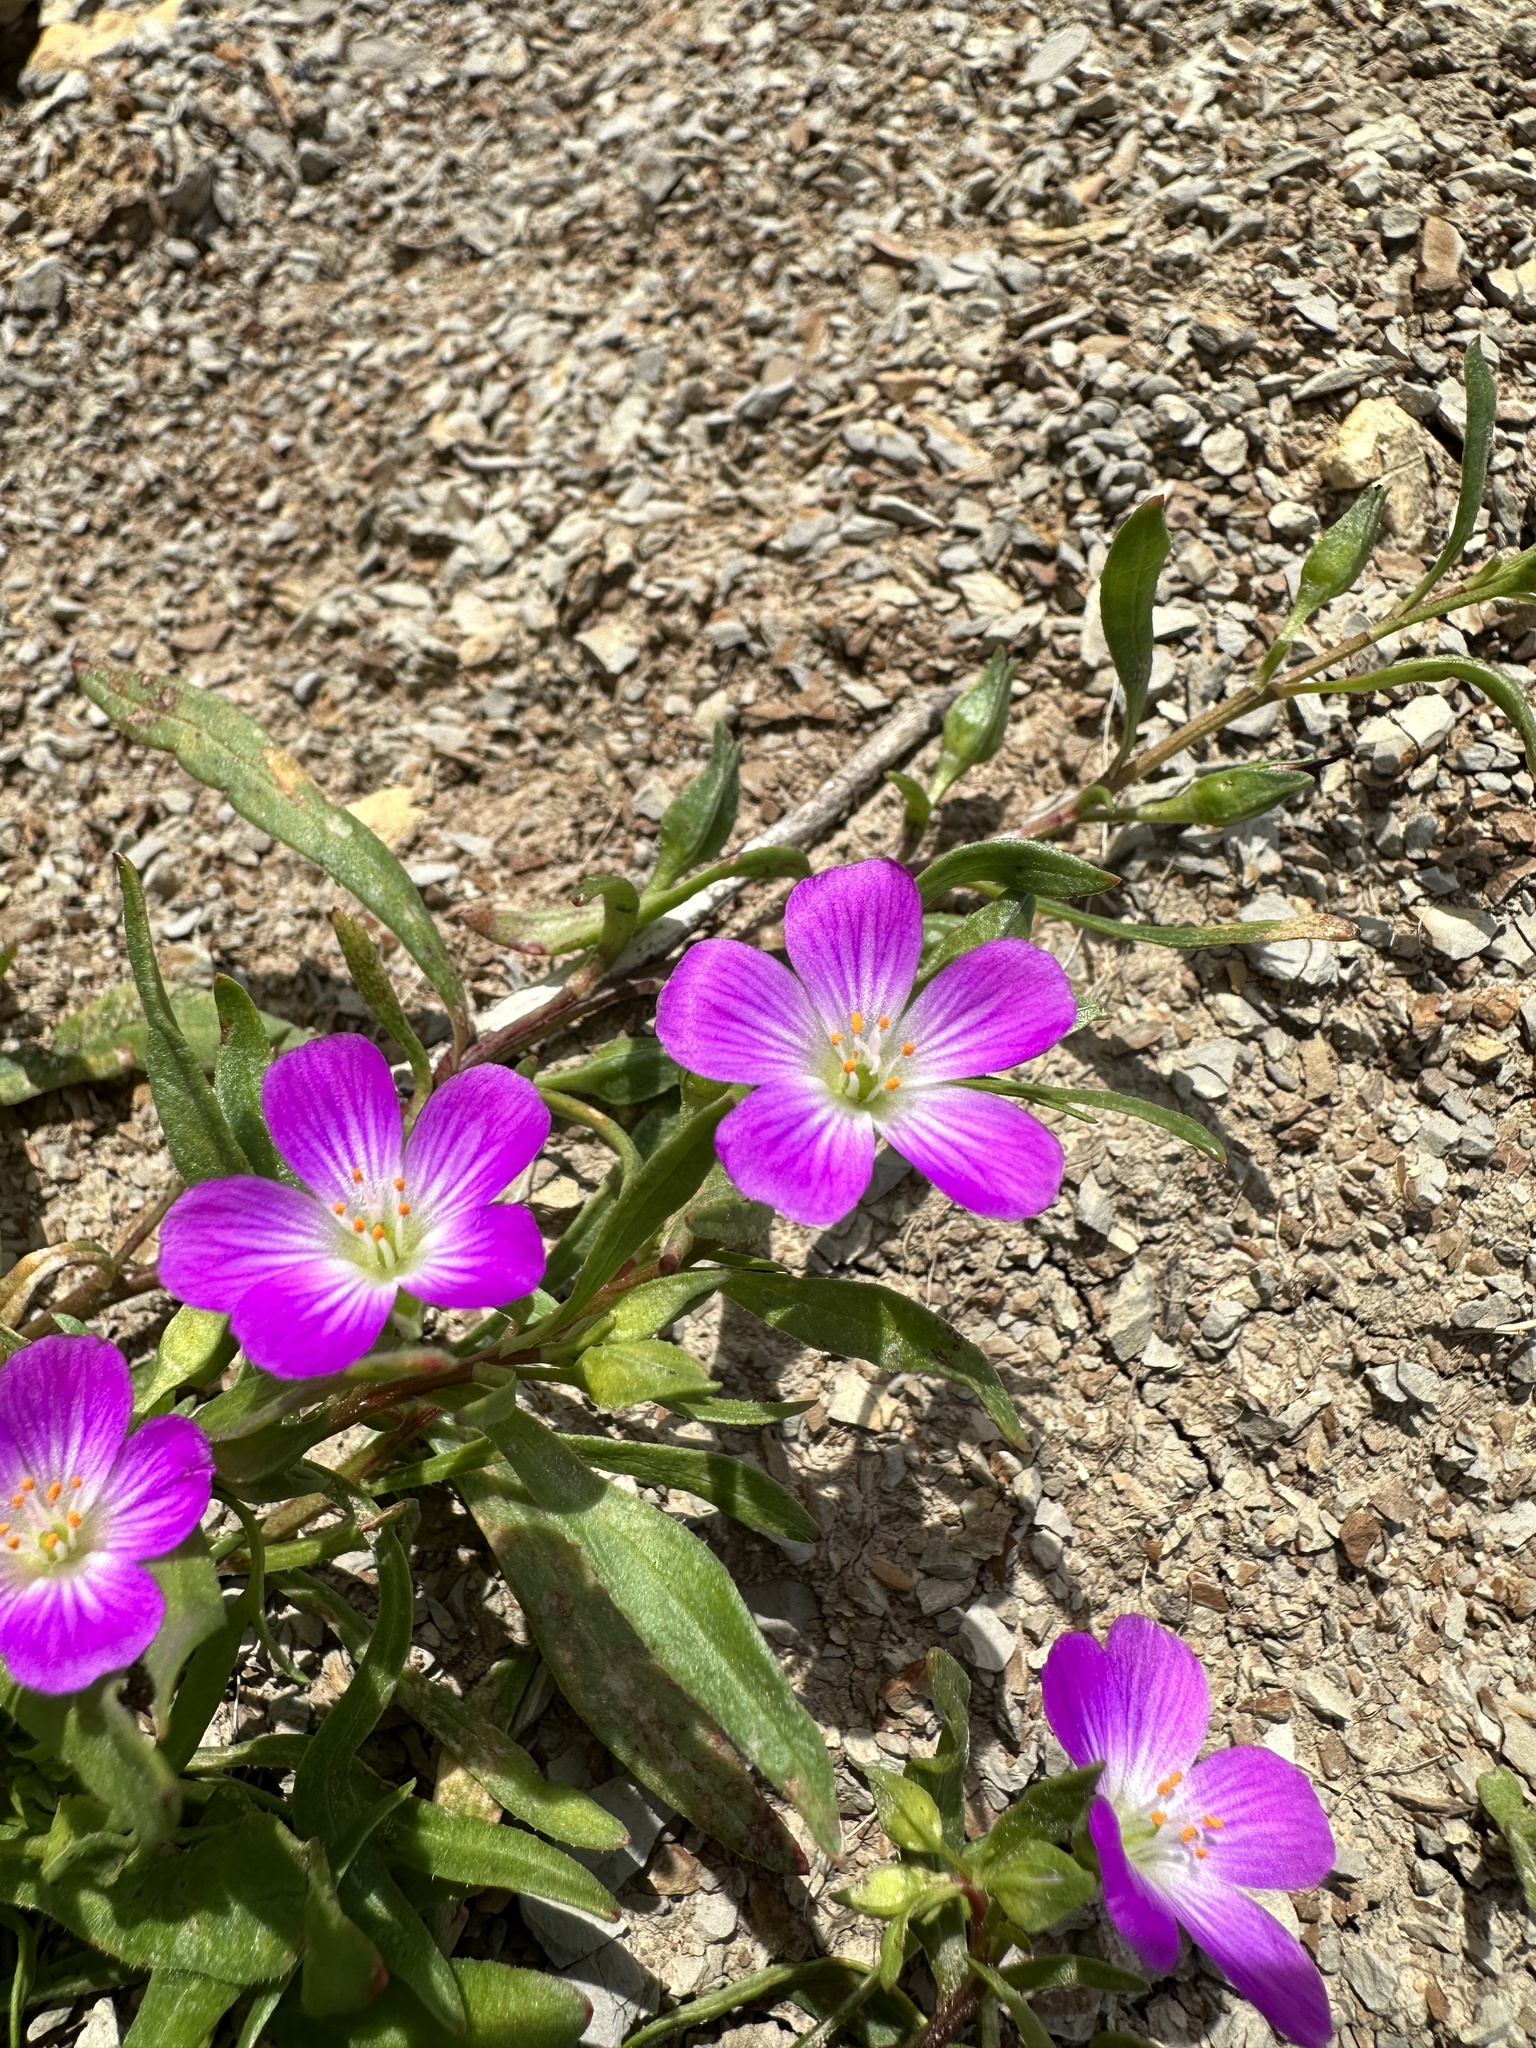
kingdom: Plantae
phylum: Tracheophyta
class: Magnoliopsida
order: Caryophyllales
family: Montiaceae
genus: Calandrinia
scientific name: Calandrinia menziesii
